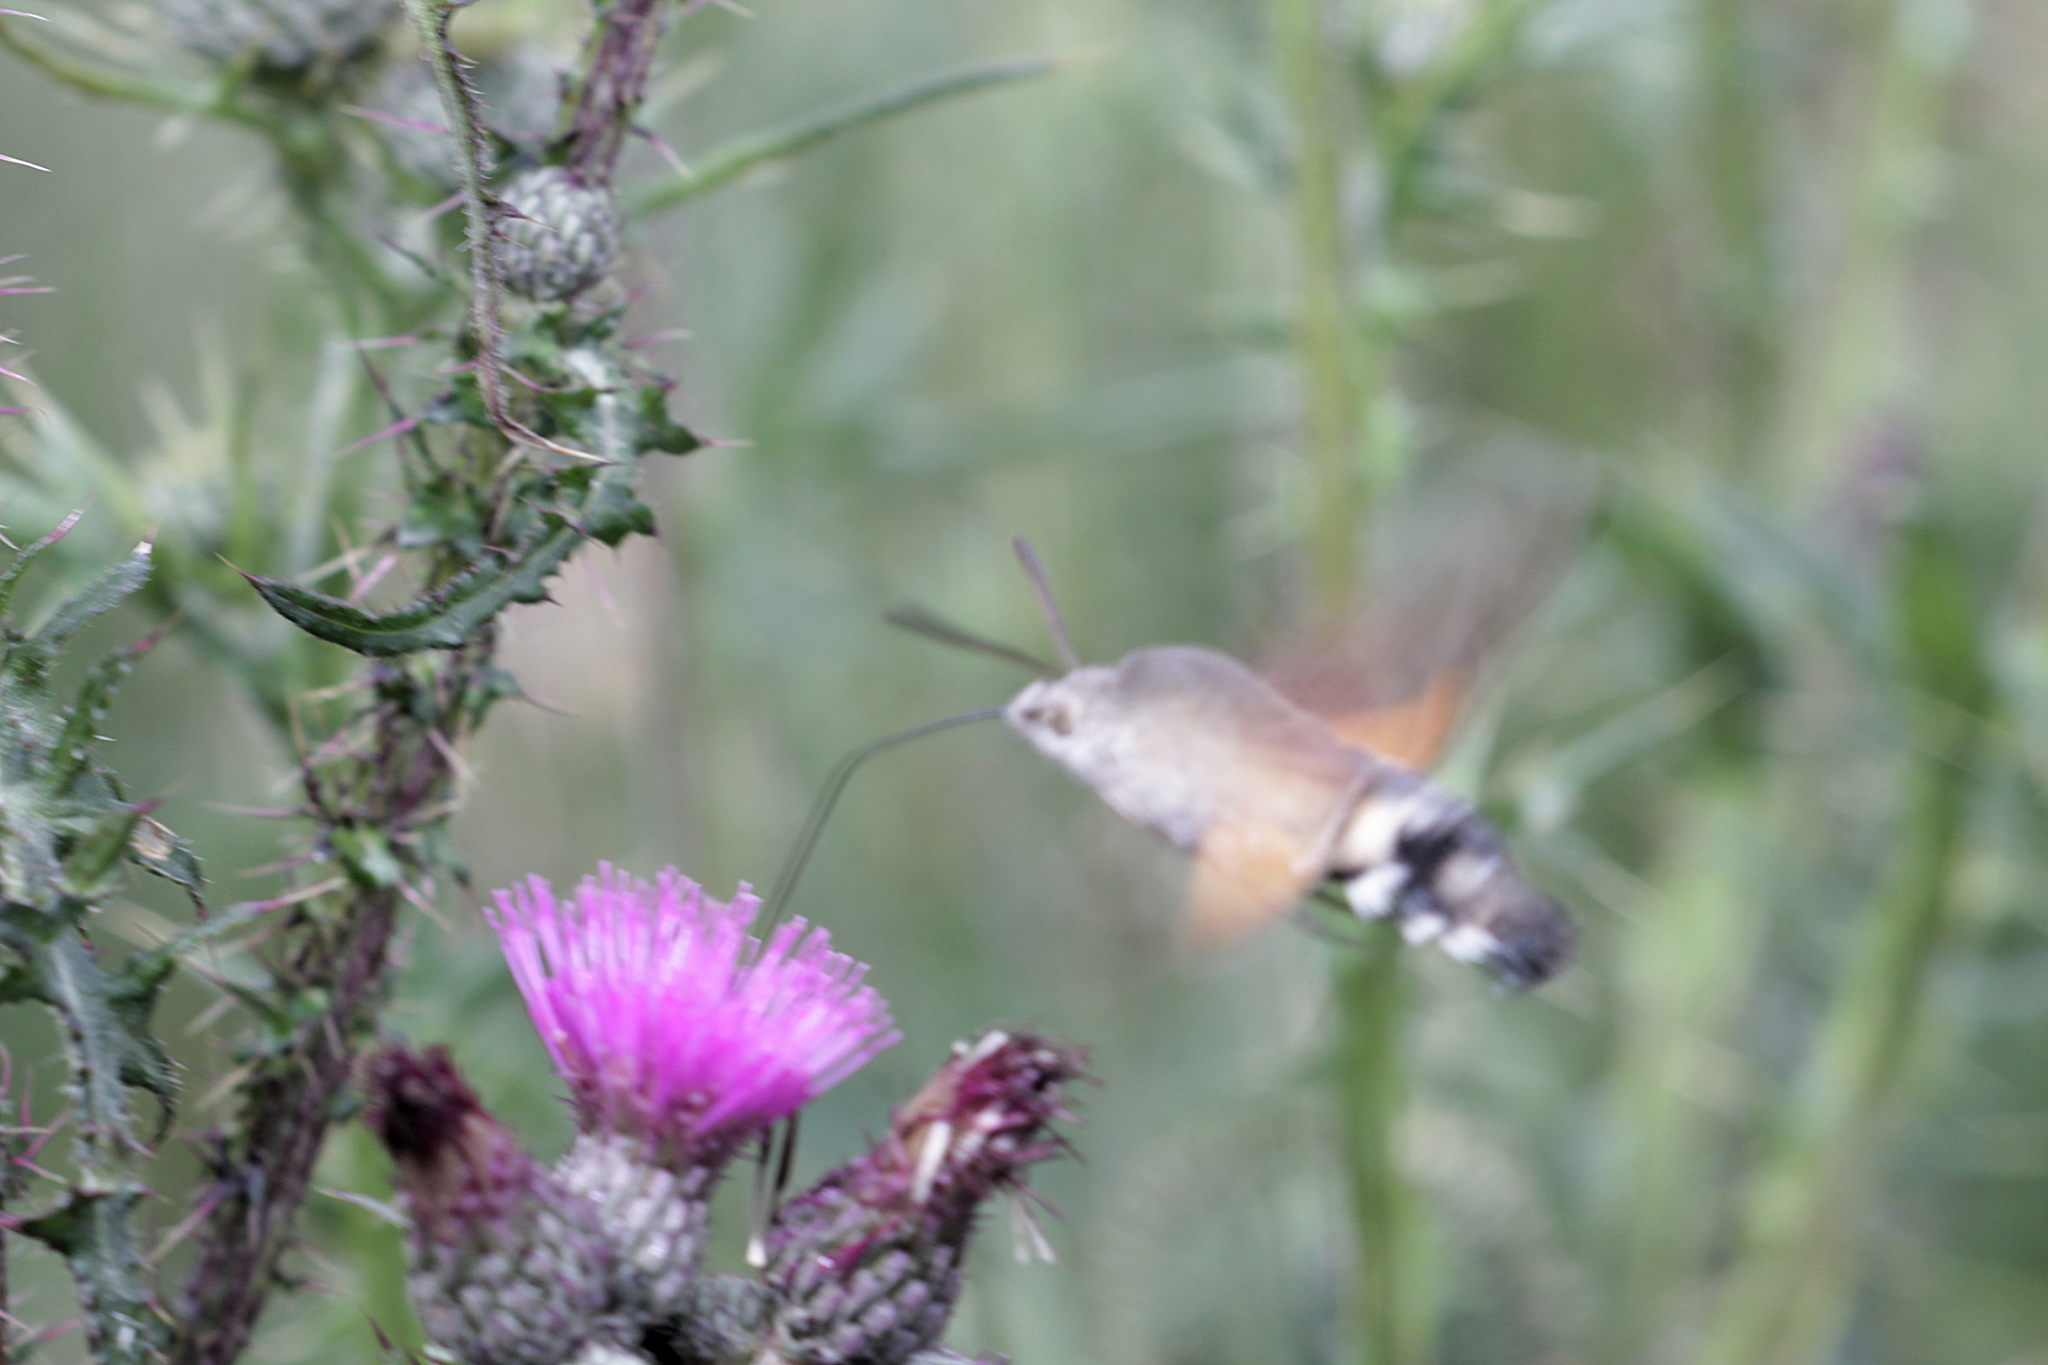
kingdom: Animalia
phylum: Arthropoda
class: Insecta
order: Lepidoptera
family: Sphingidae
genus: Macroglossum
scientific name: Macroglossum stellatarum
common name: Humming-bird hawk-moth
